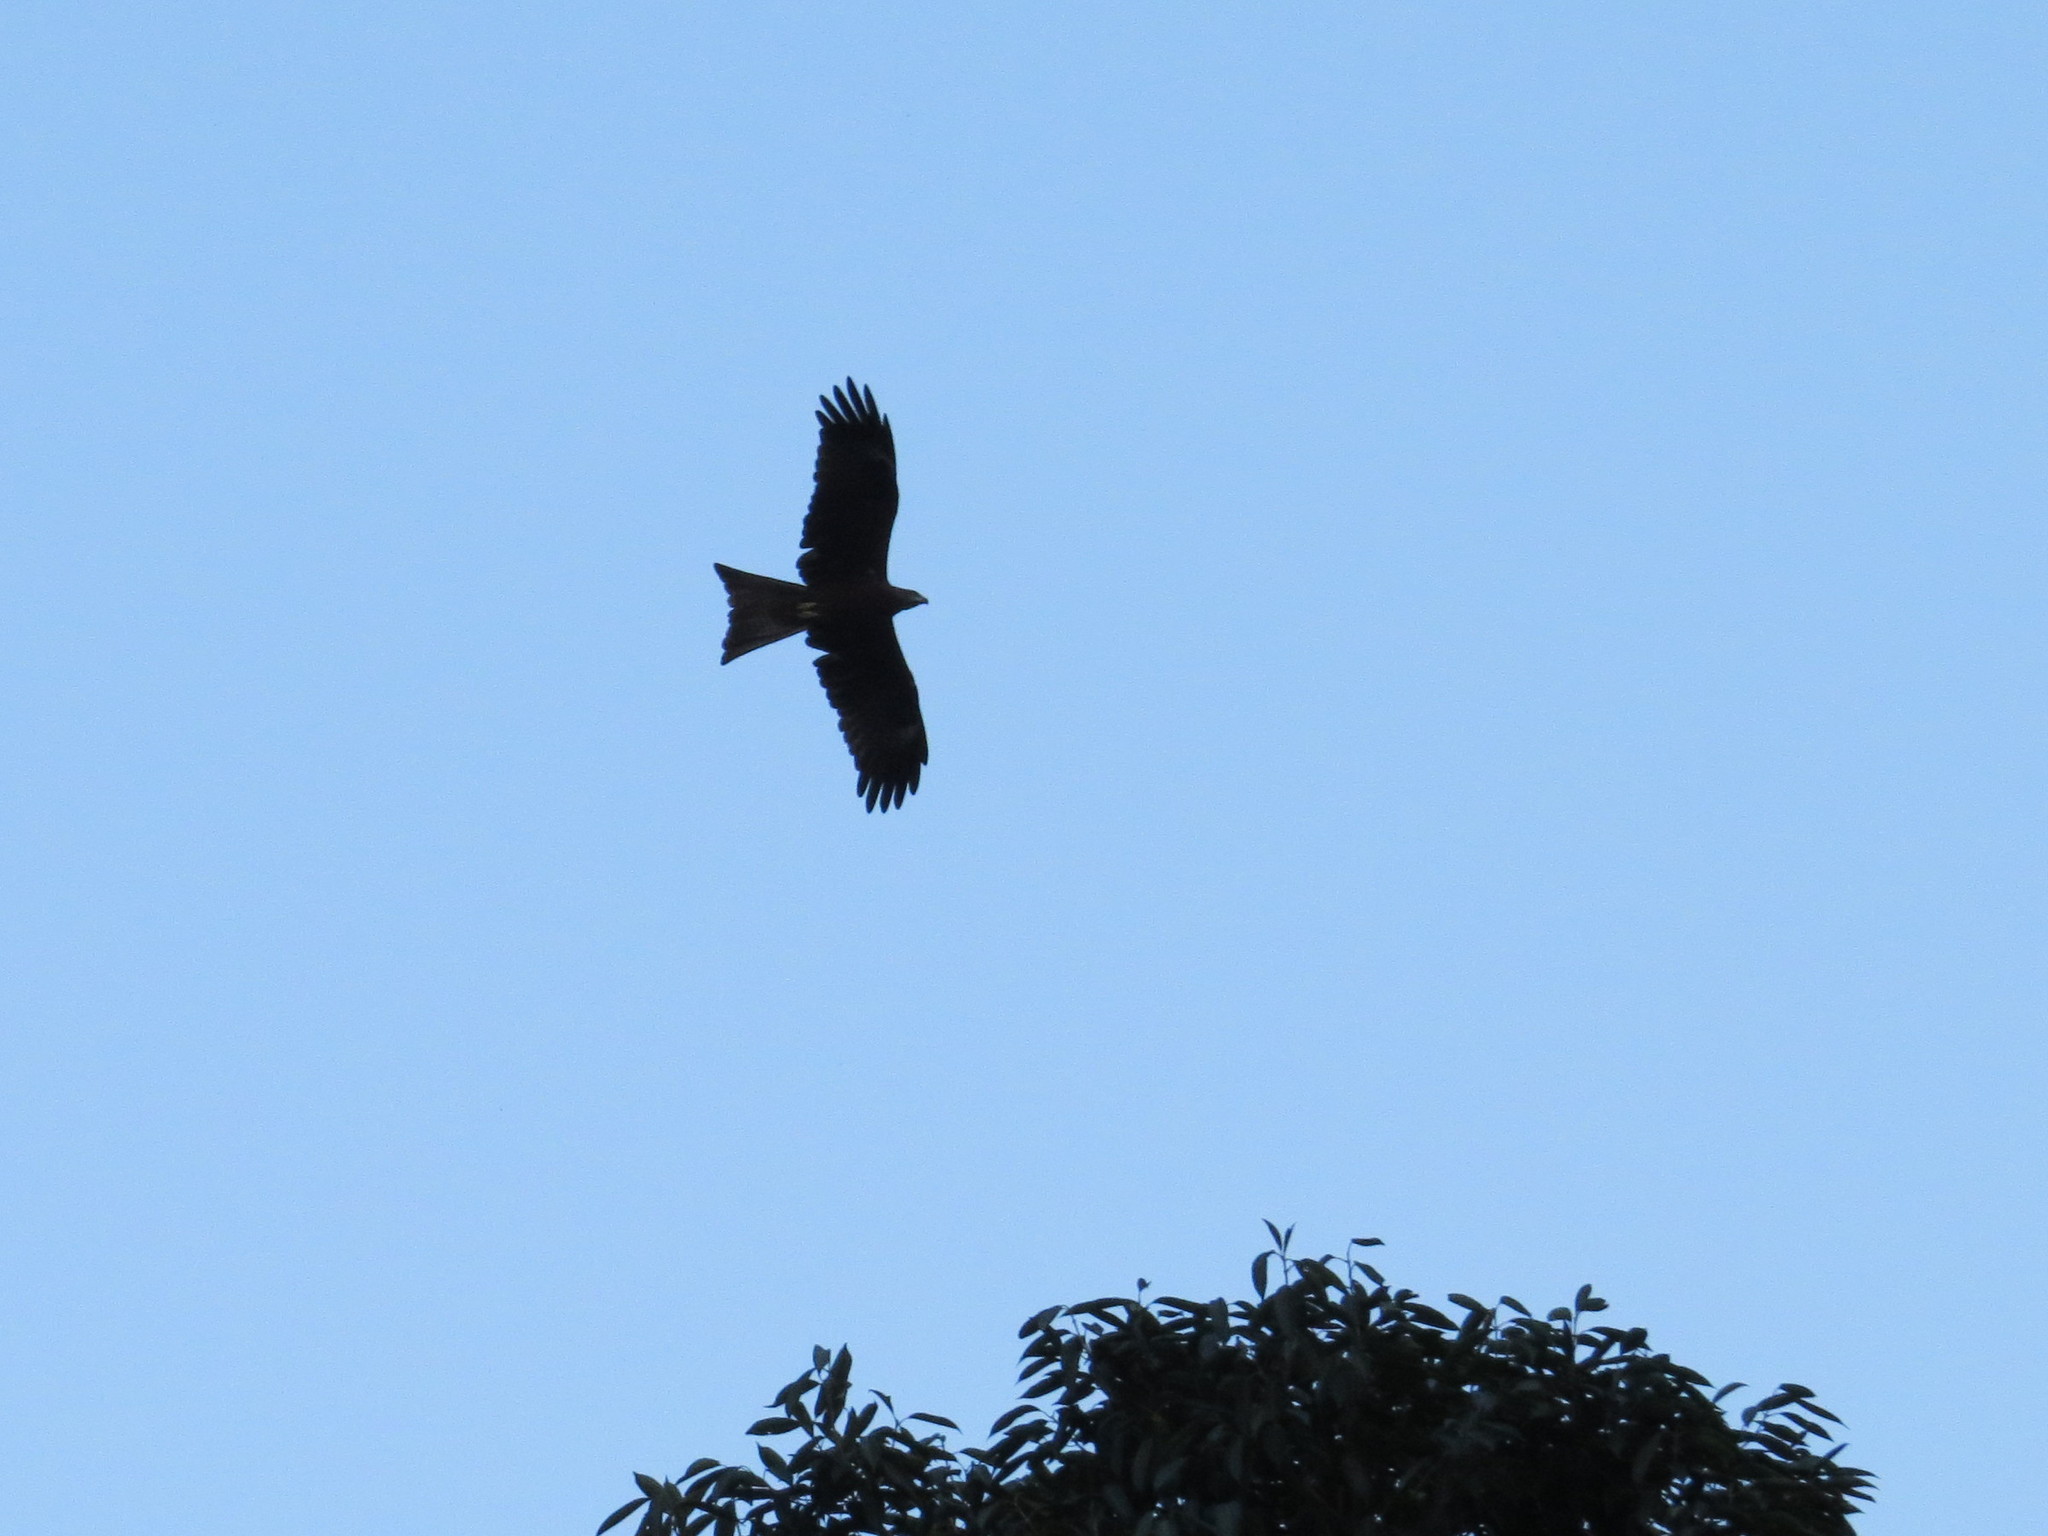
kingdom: Animalia
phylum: Chordata
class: Aves
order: Accipitriformes
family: Accipitridae
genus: Milvus
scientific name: Milvus migrans
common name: Black kite
